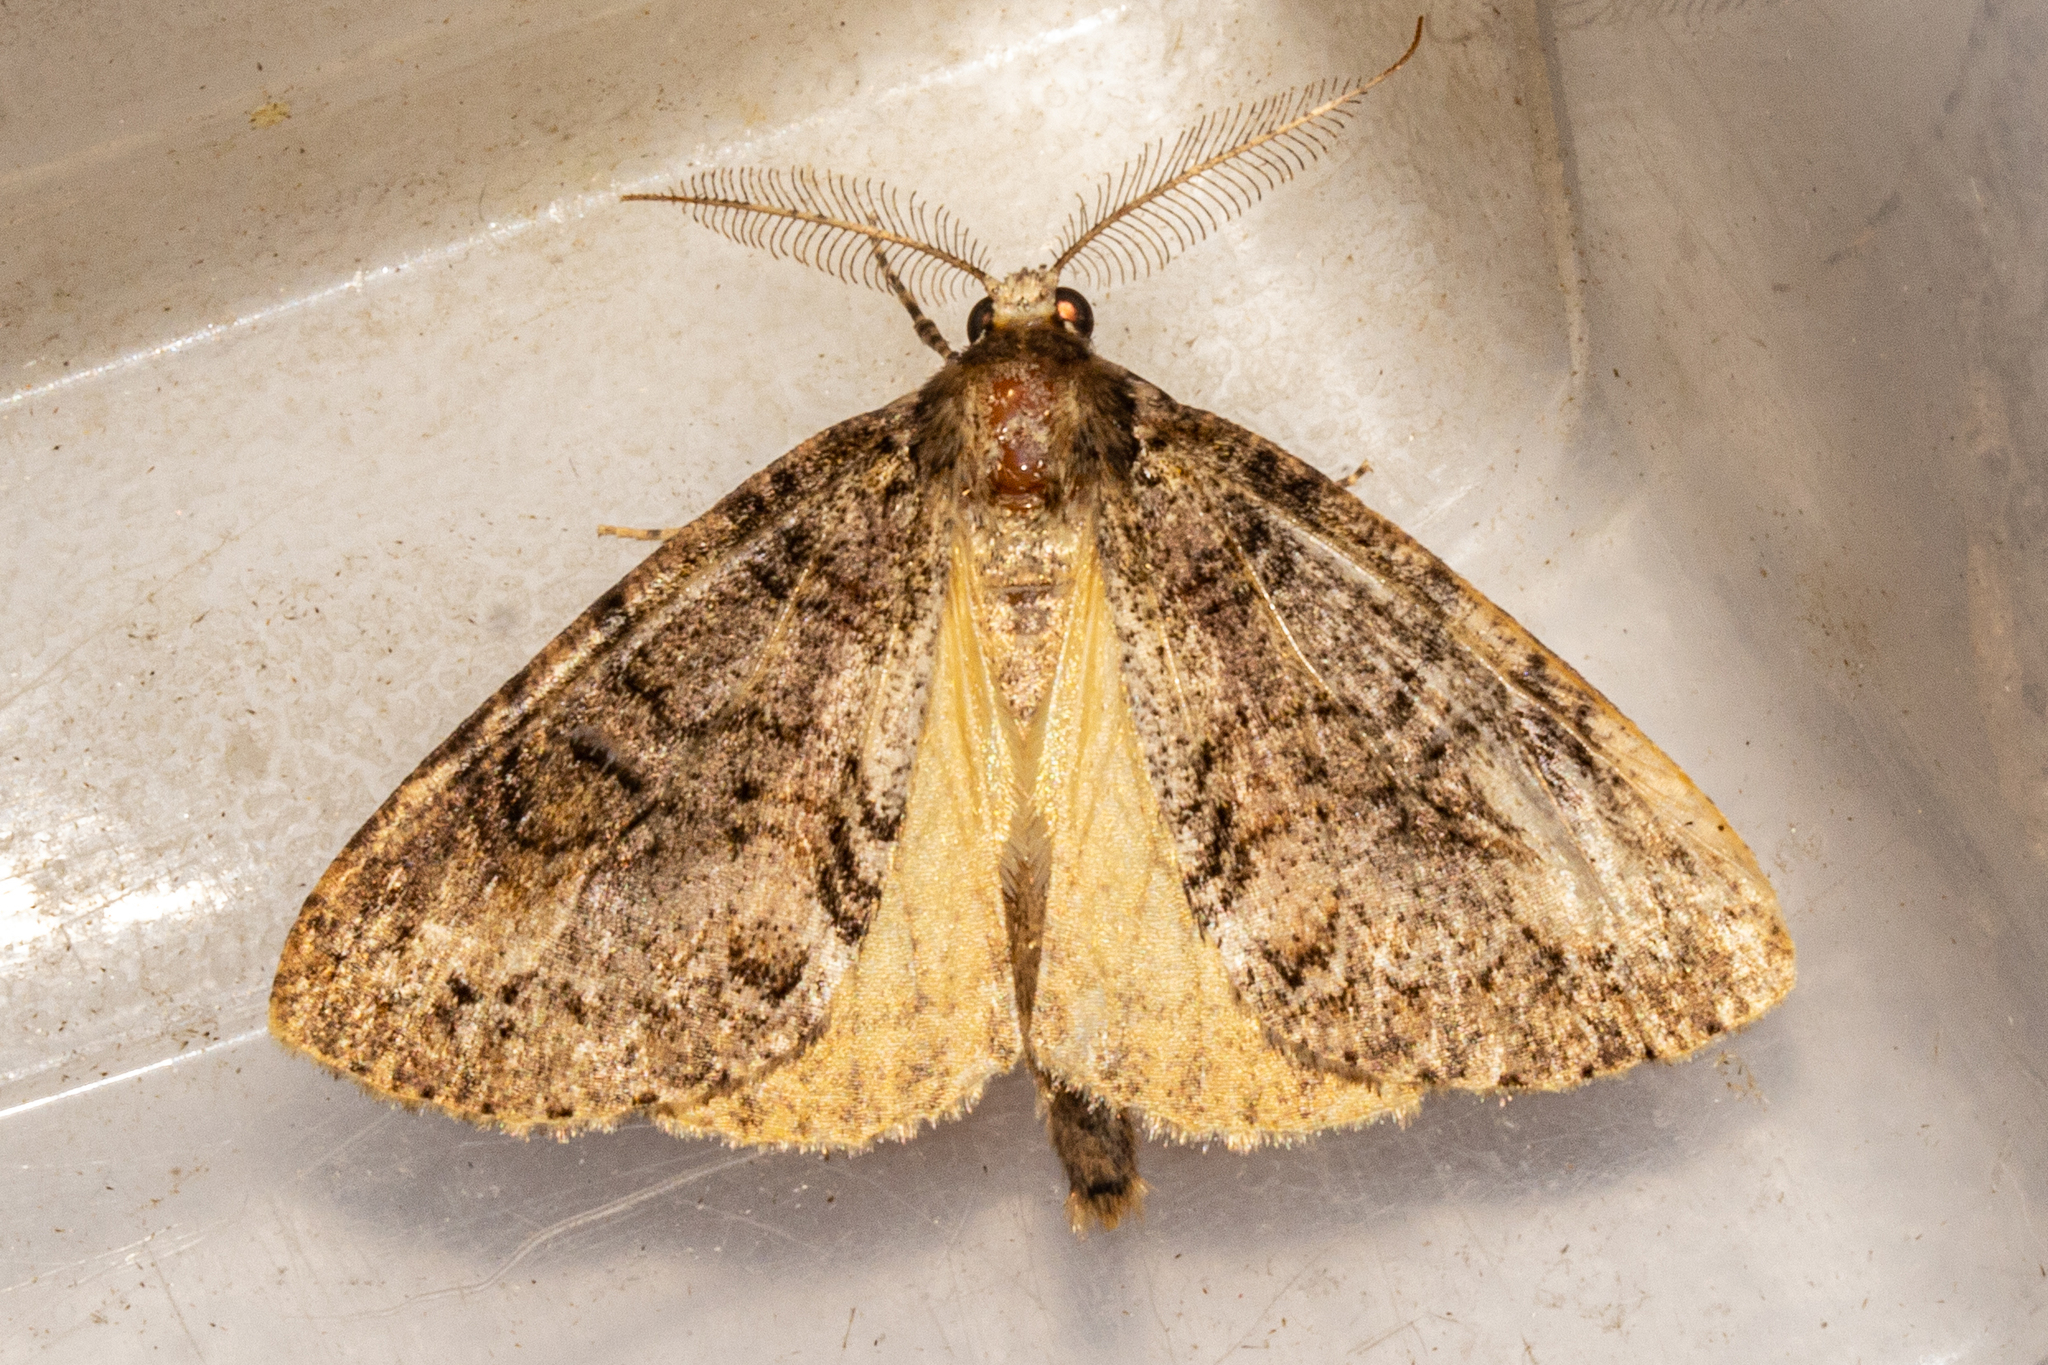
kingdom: Animalia
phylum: Arthropoda
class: Insecta
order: Lepidoptera
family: Geometridae
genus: Pseudocoremia
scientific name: Pseudocoremia suavis
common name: Common forest looper
